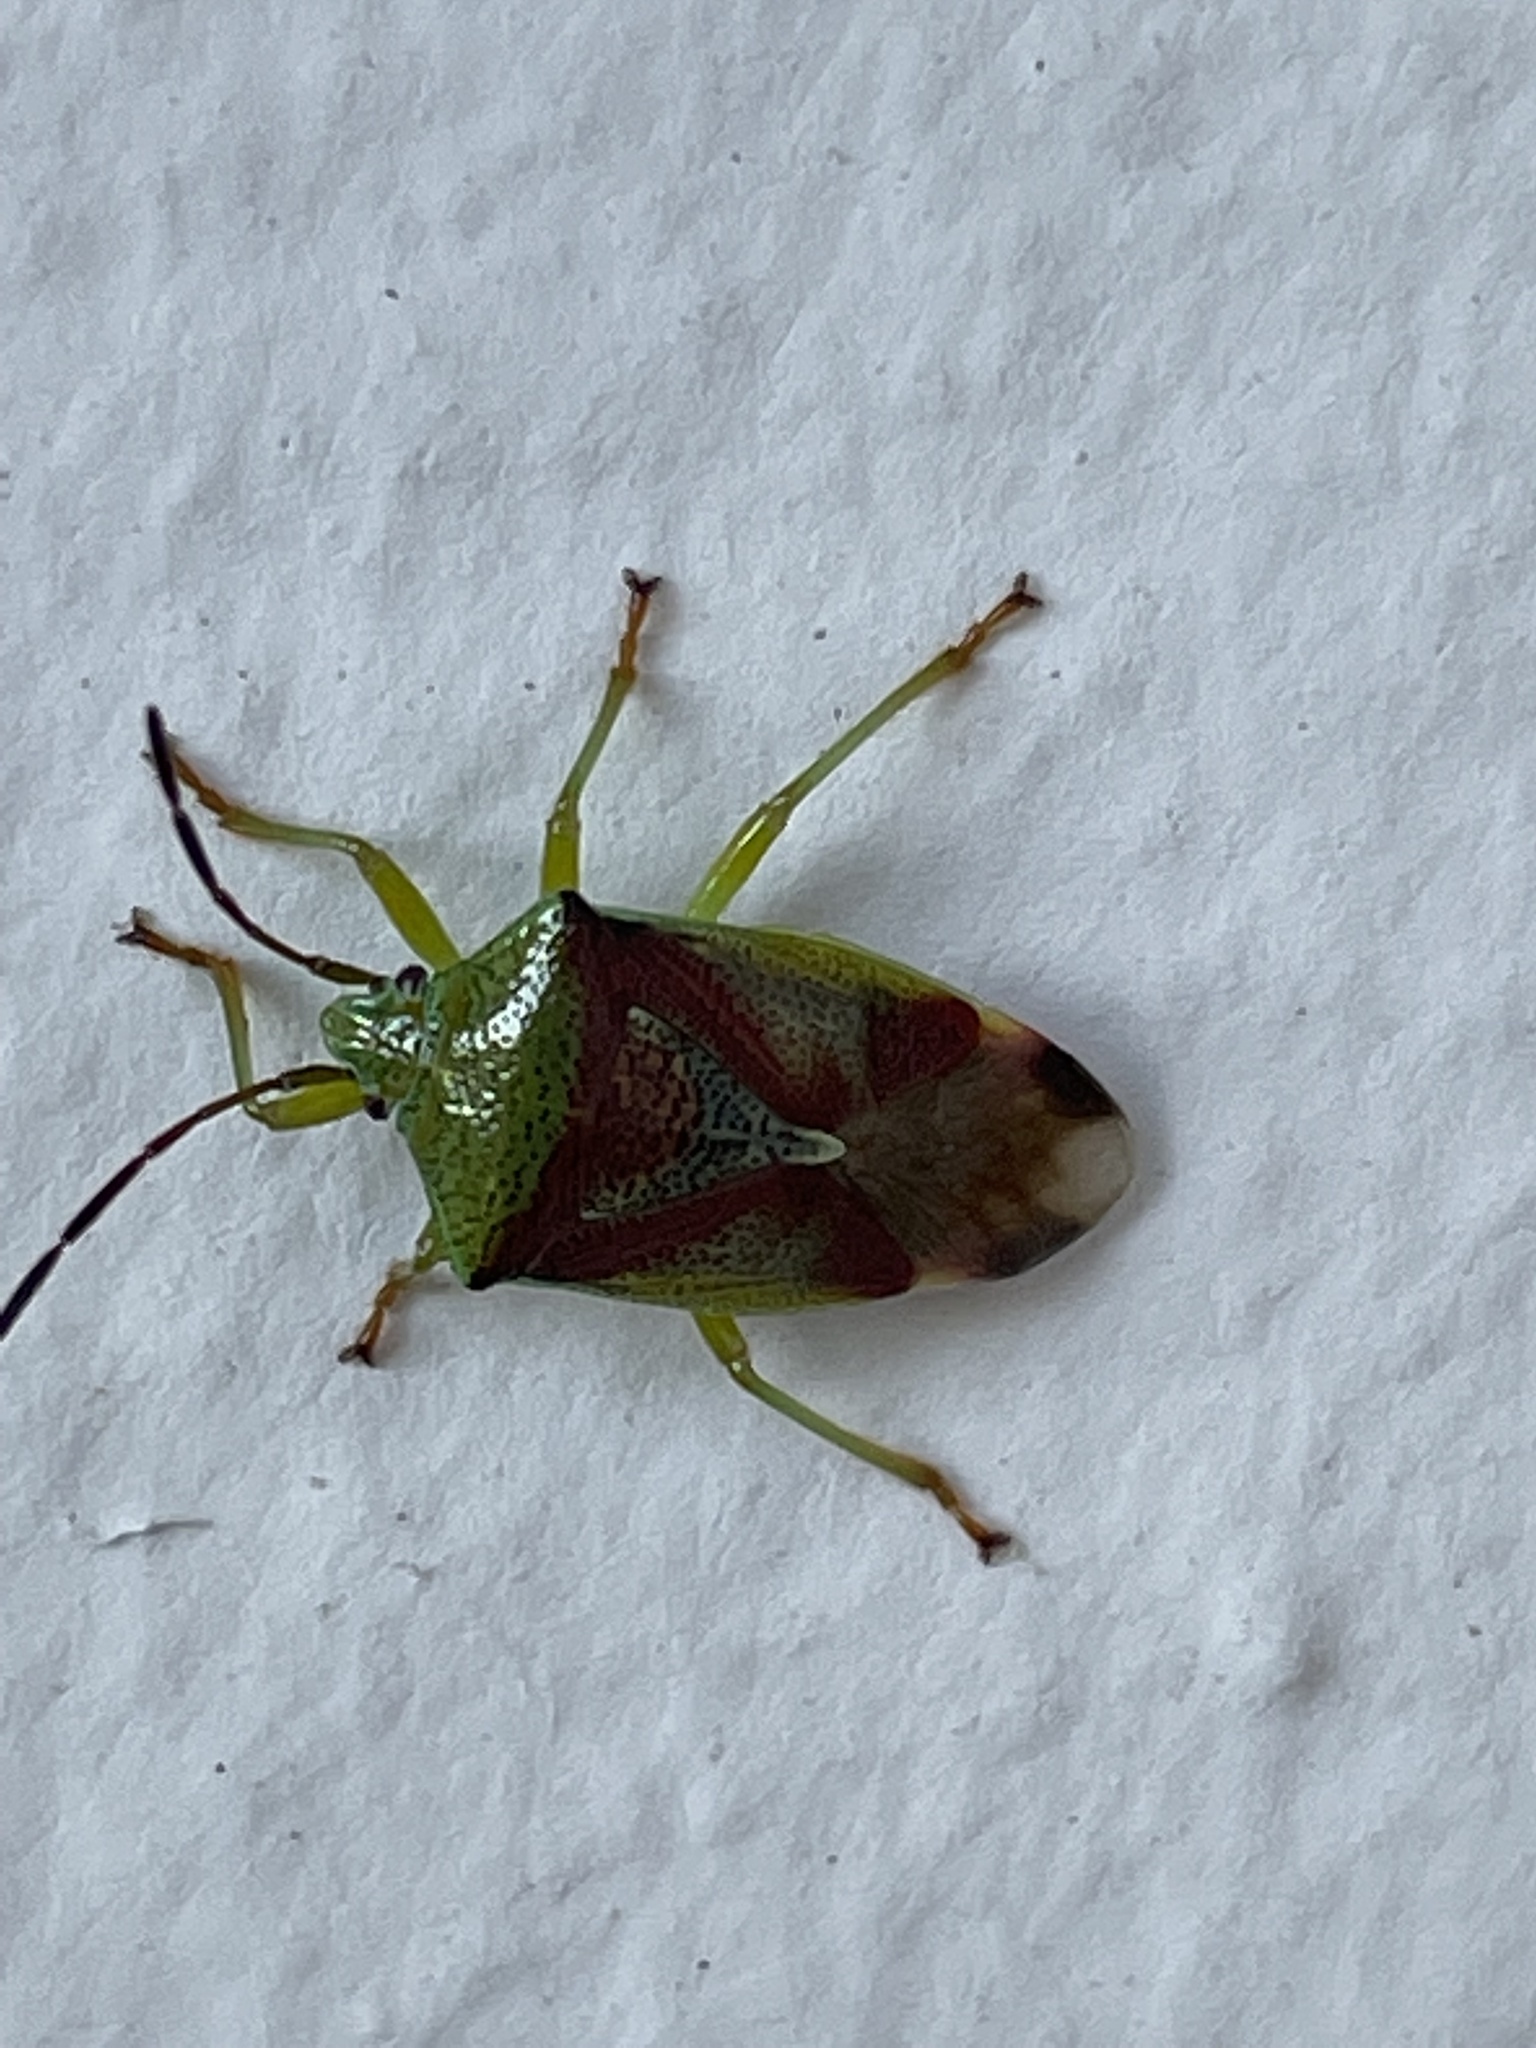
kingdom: Animalia
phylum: Arthropoda
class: Insecta
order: Hemiptera
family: Acanthosomatidae
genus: Elasmostethus
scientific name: Elasmostethus interstinctus
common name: Birch shieldbug
